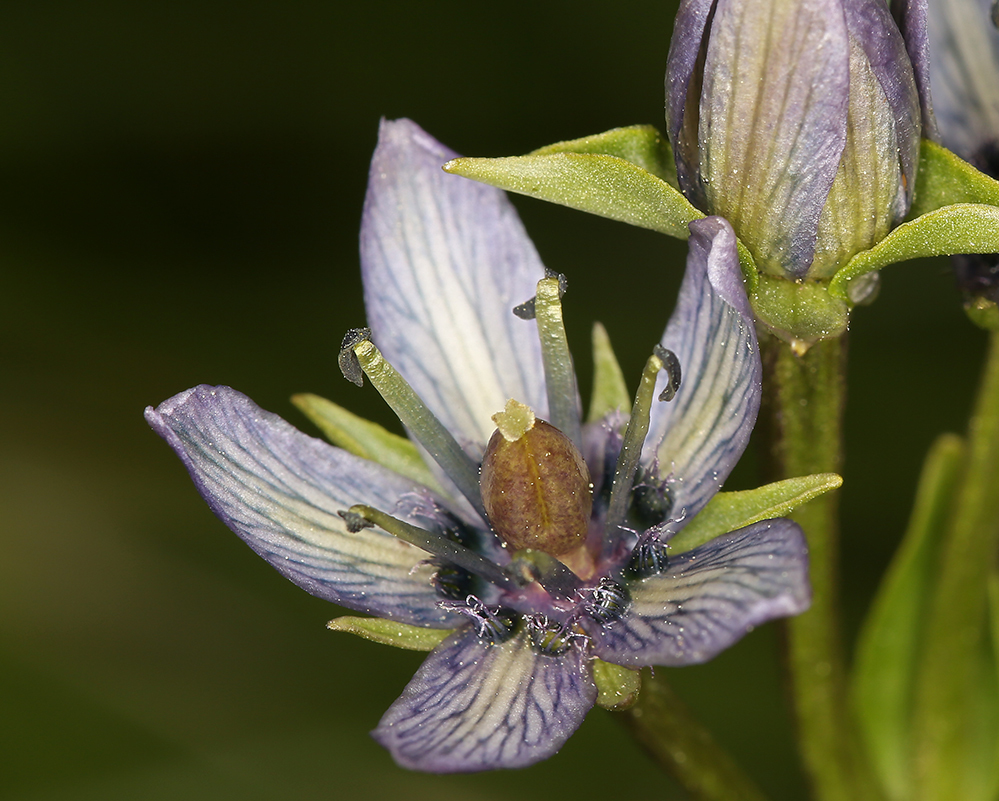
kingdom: Plantae
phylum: Tracheophyta
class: Magnoliopsida
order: Gentianales
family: Gentianaceae
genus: Swertia
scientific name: Swertia perennis
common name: Alpine bog swertia
